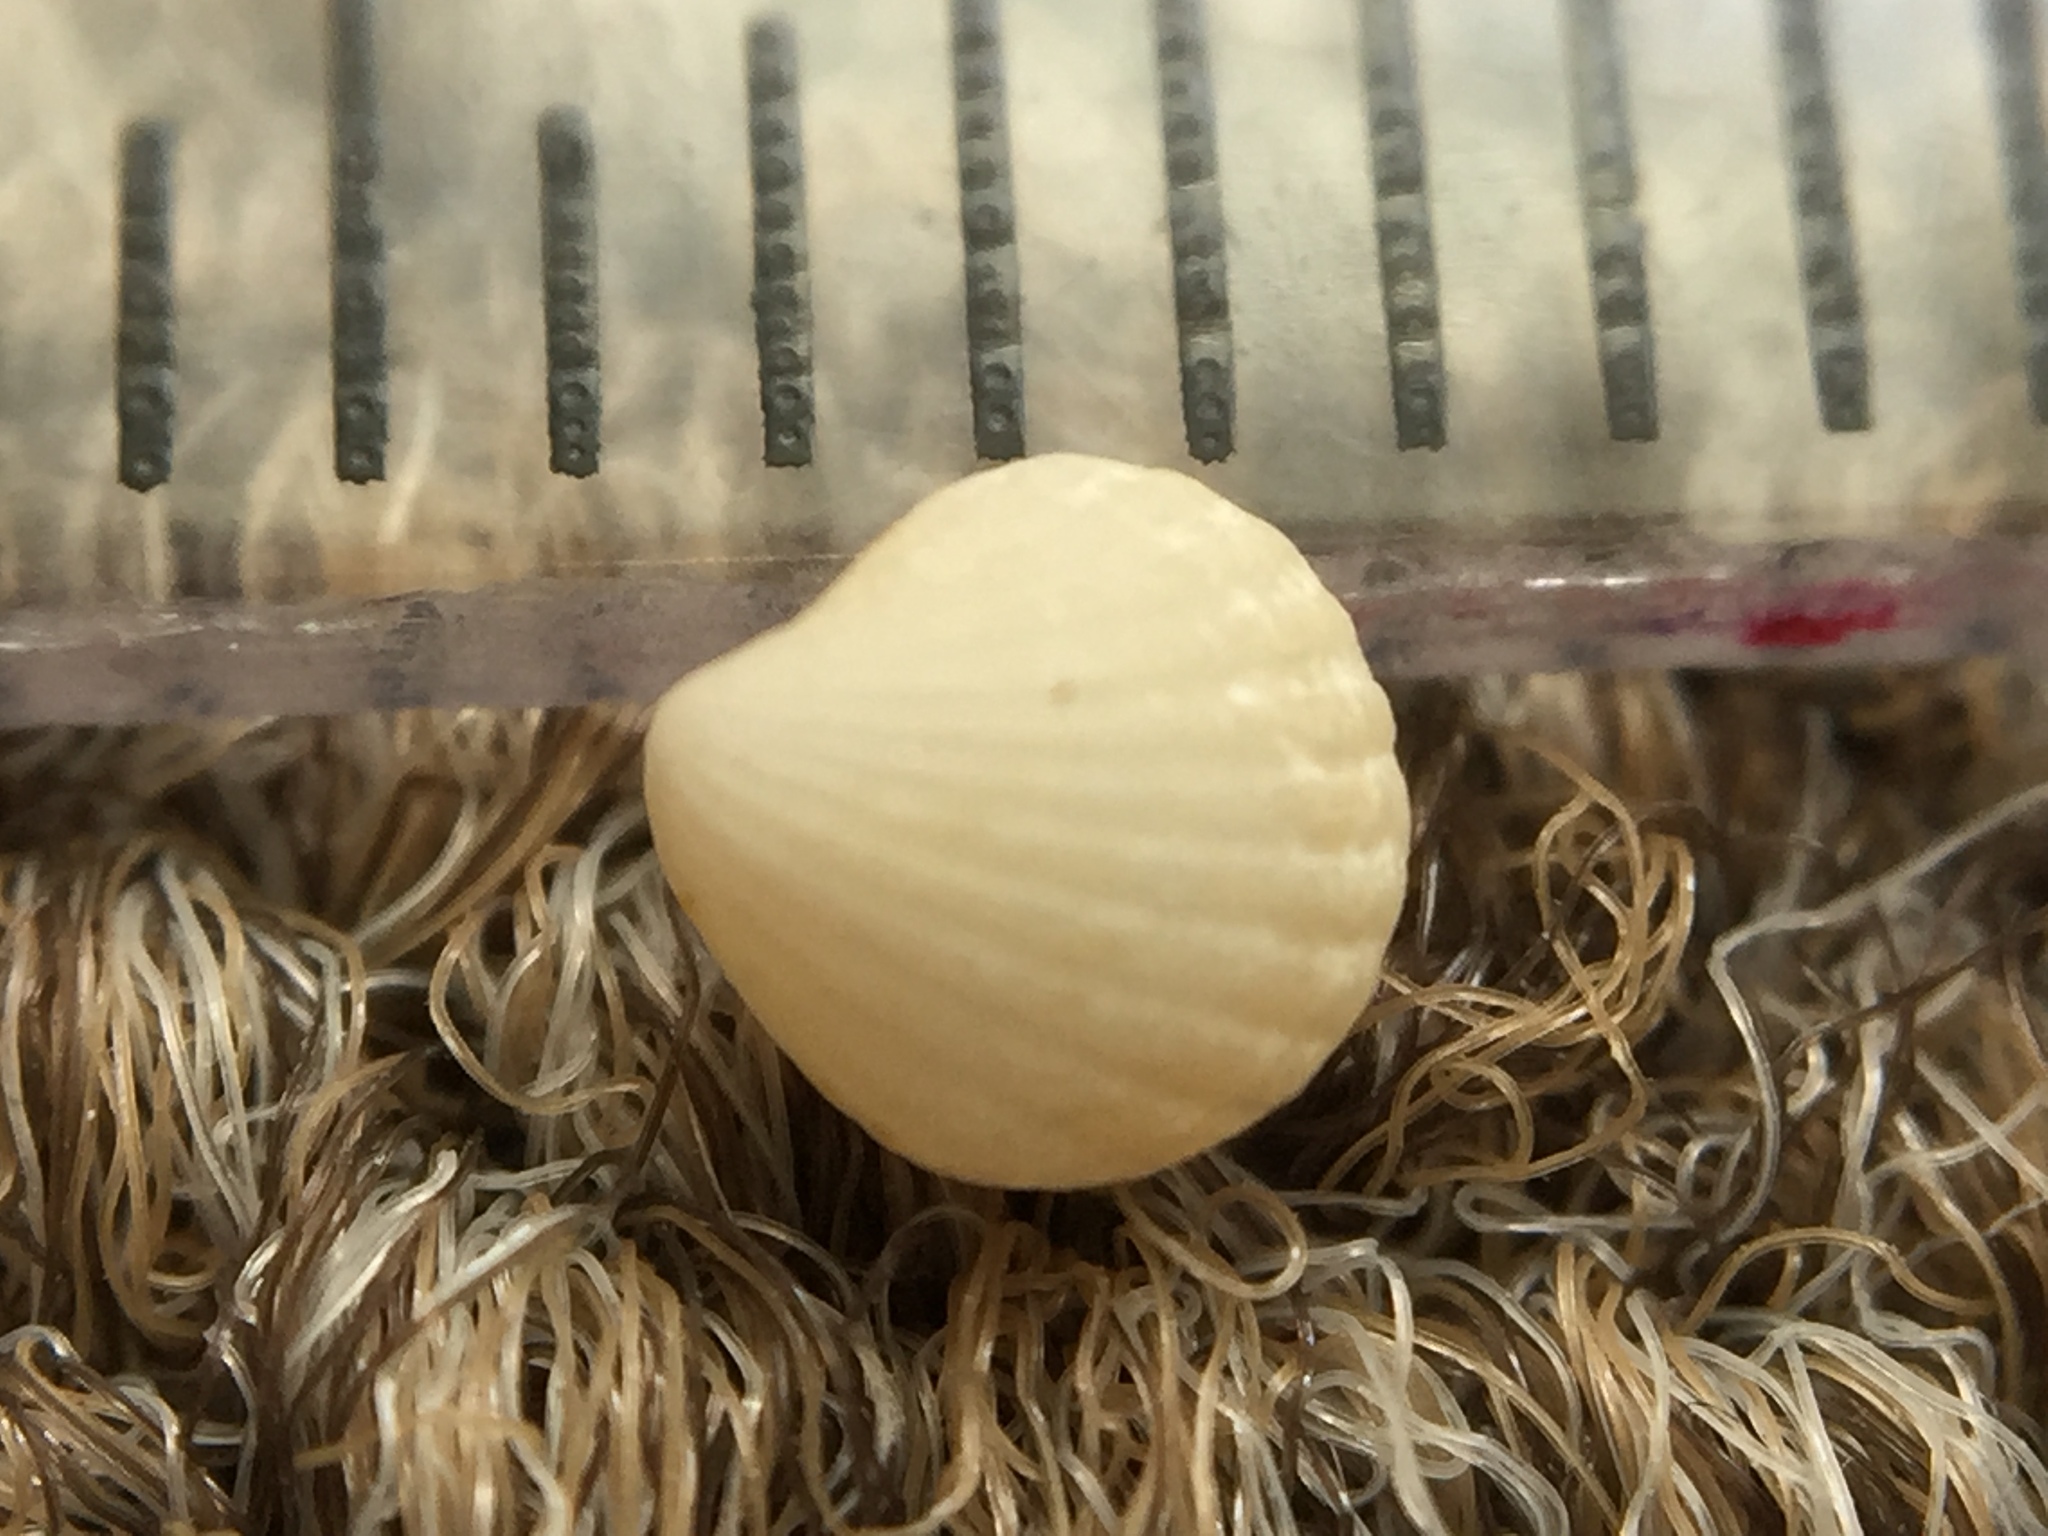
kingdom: Animalia
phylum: Mollusca
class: Bivalvia
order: Carditida
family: Carditidae
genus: Pleuromeris
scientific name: Pleuromeris
